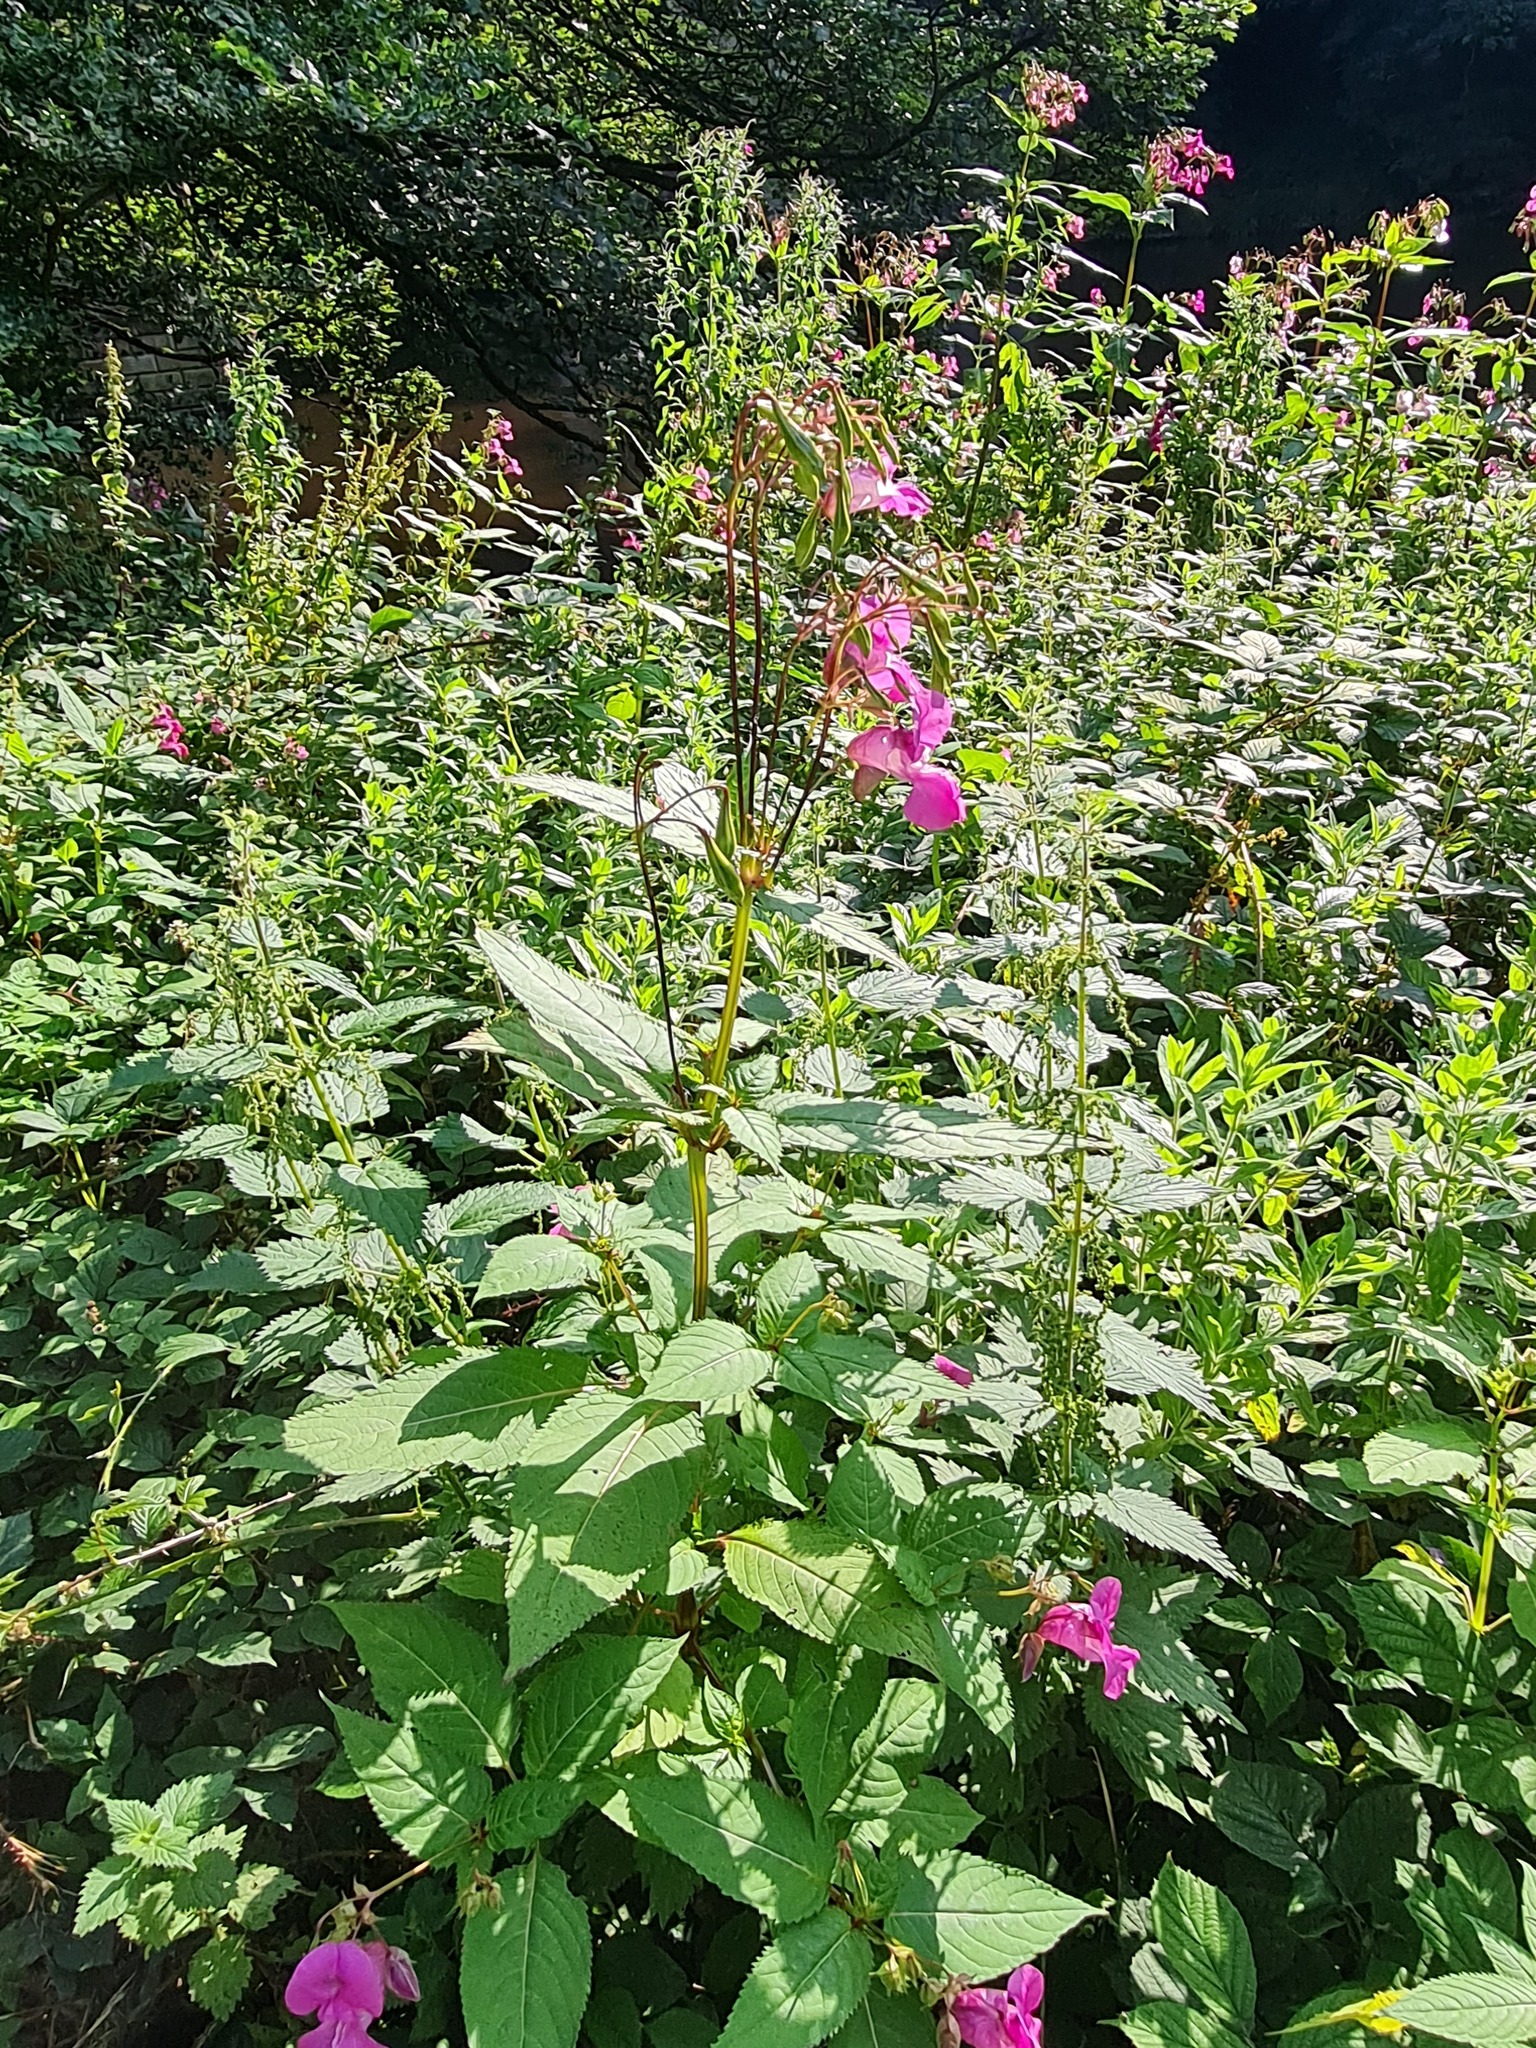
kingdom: Plantae
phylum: Tracheophyta
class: Magnoliopsida
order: Ericales
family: Balsaminaceae
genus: Impatiens
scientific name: Impatiens glandulifera
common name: Himalayan balsam
